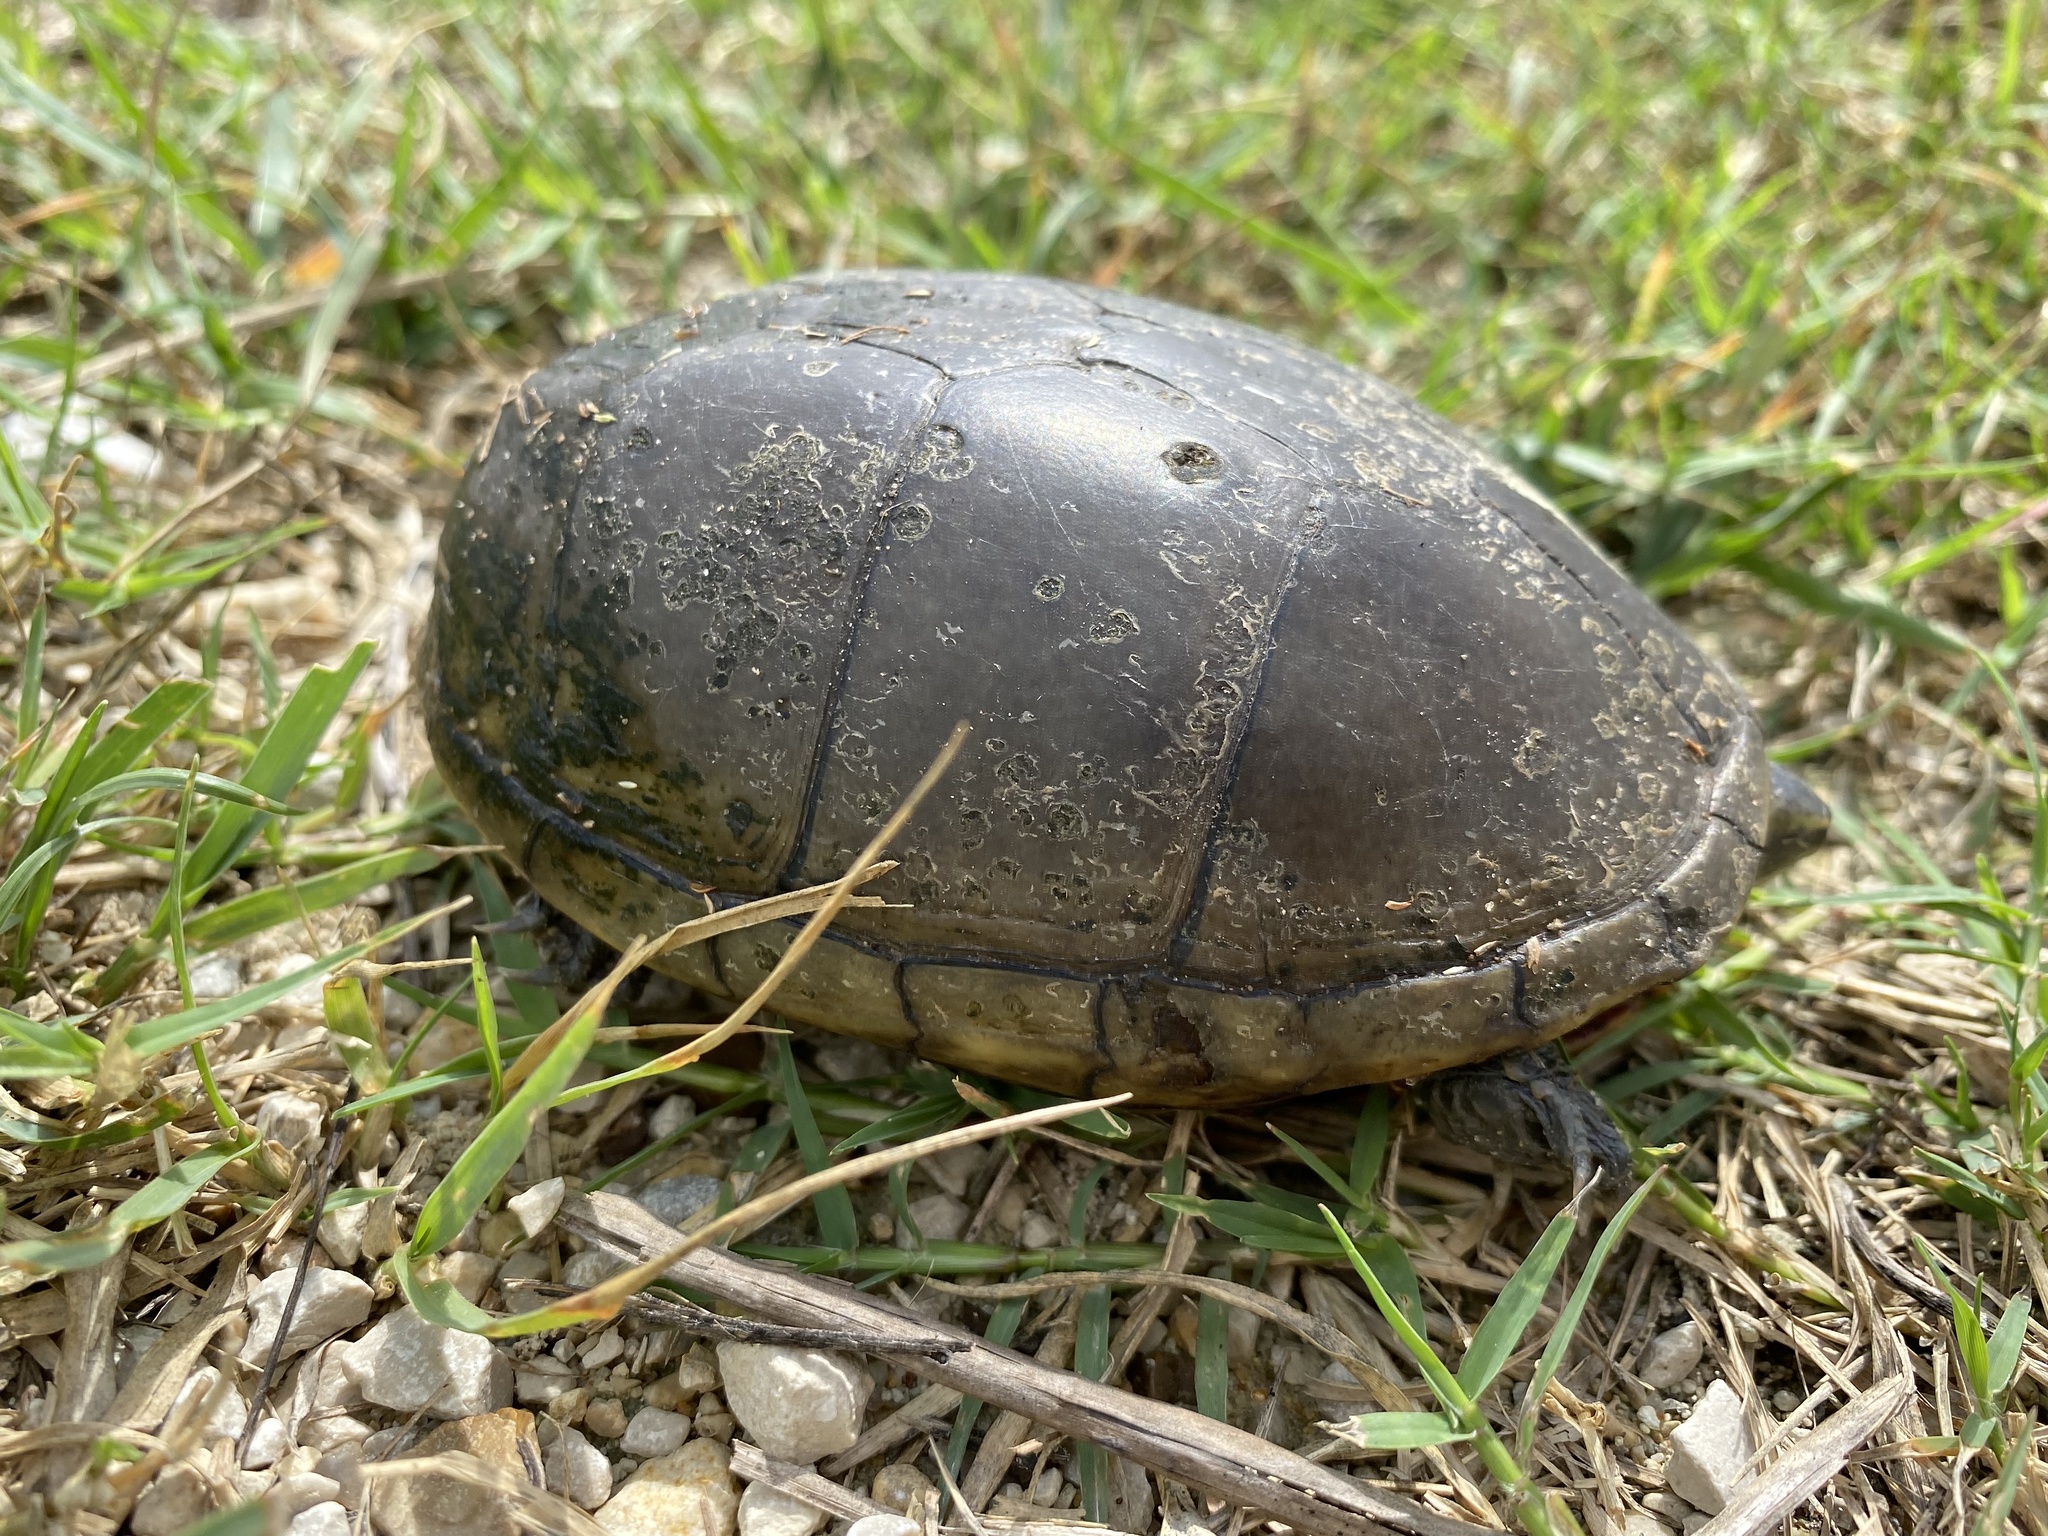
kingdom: Animalia
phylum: Chordata
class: Testudines
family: Kinosternidae
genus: Kinosternon
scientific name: Kinosternon subrubrum
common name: Eastern mud turtle
